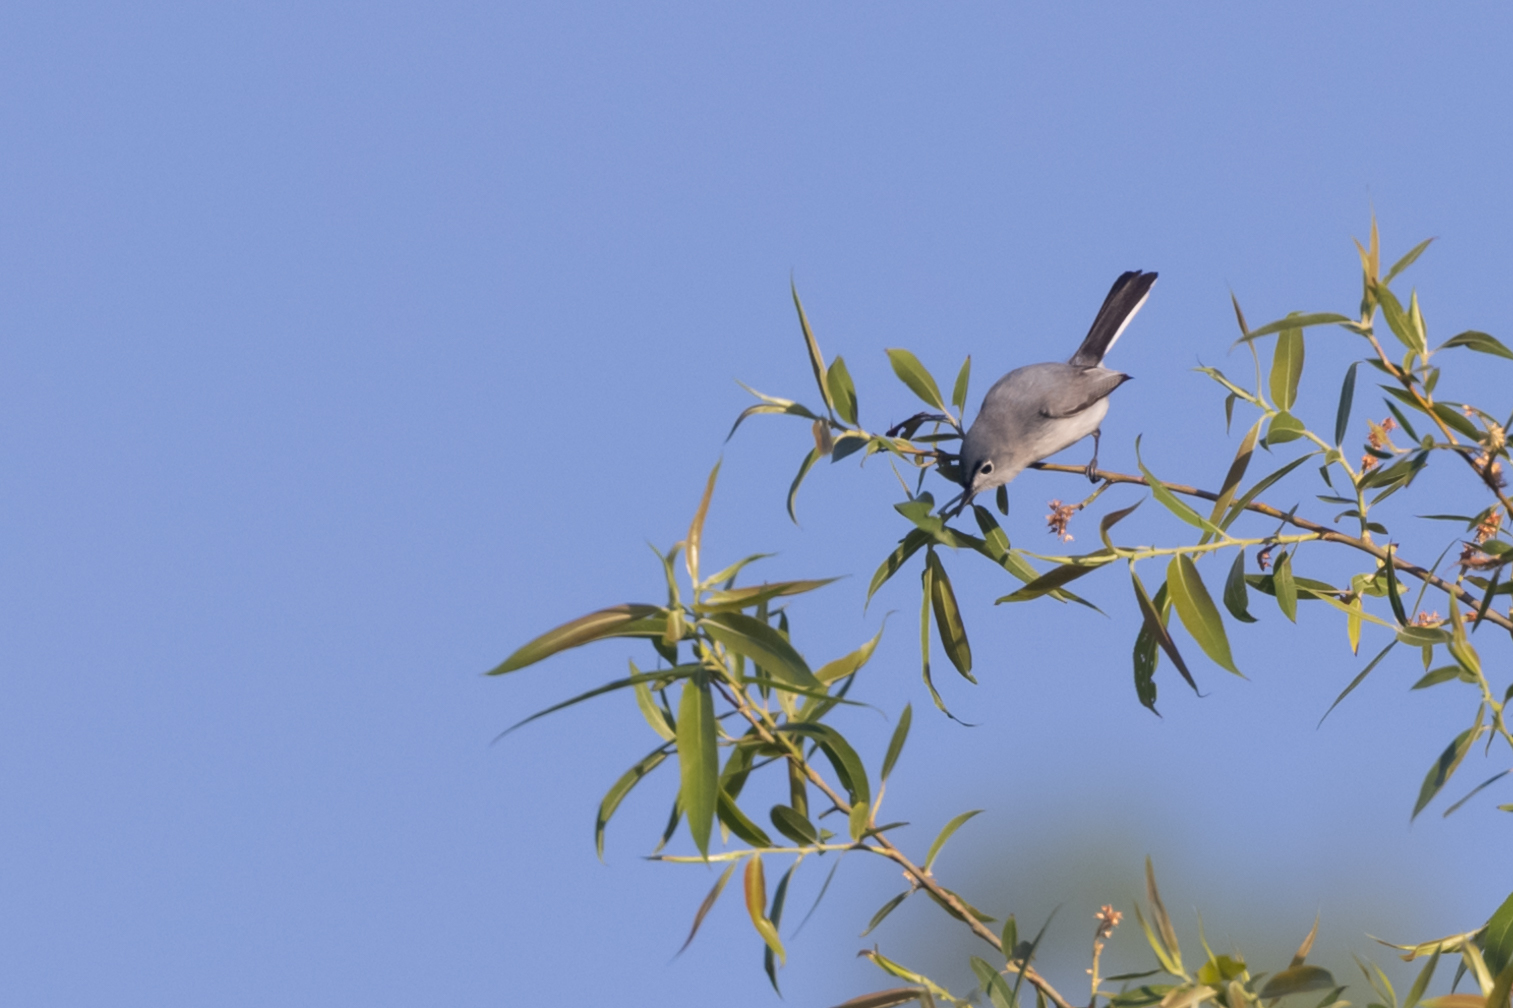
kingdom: Animalia
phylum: Chordata
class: Aves
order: Passeriformes
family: Polioptilidae
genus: Polioptila
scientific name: Polioptila caerulea
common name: Blue-gray gnatcatcher
